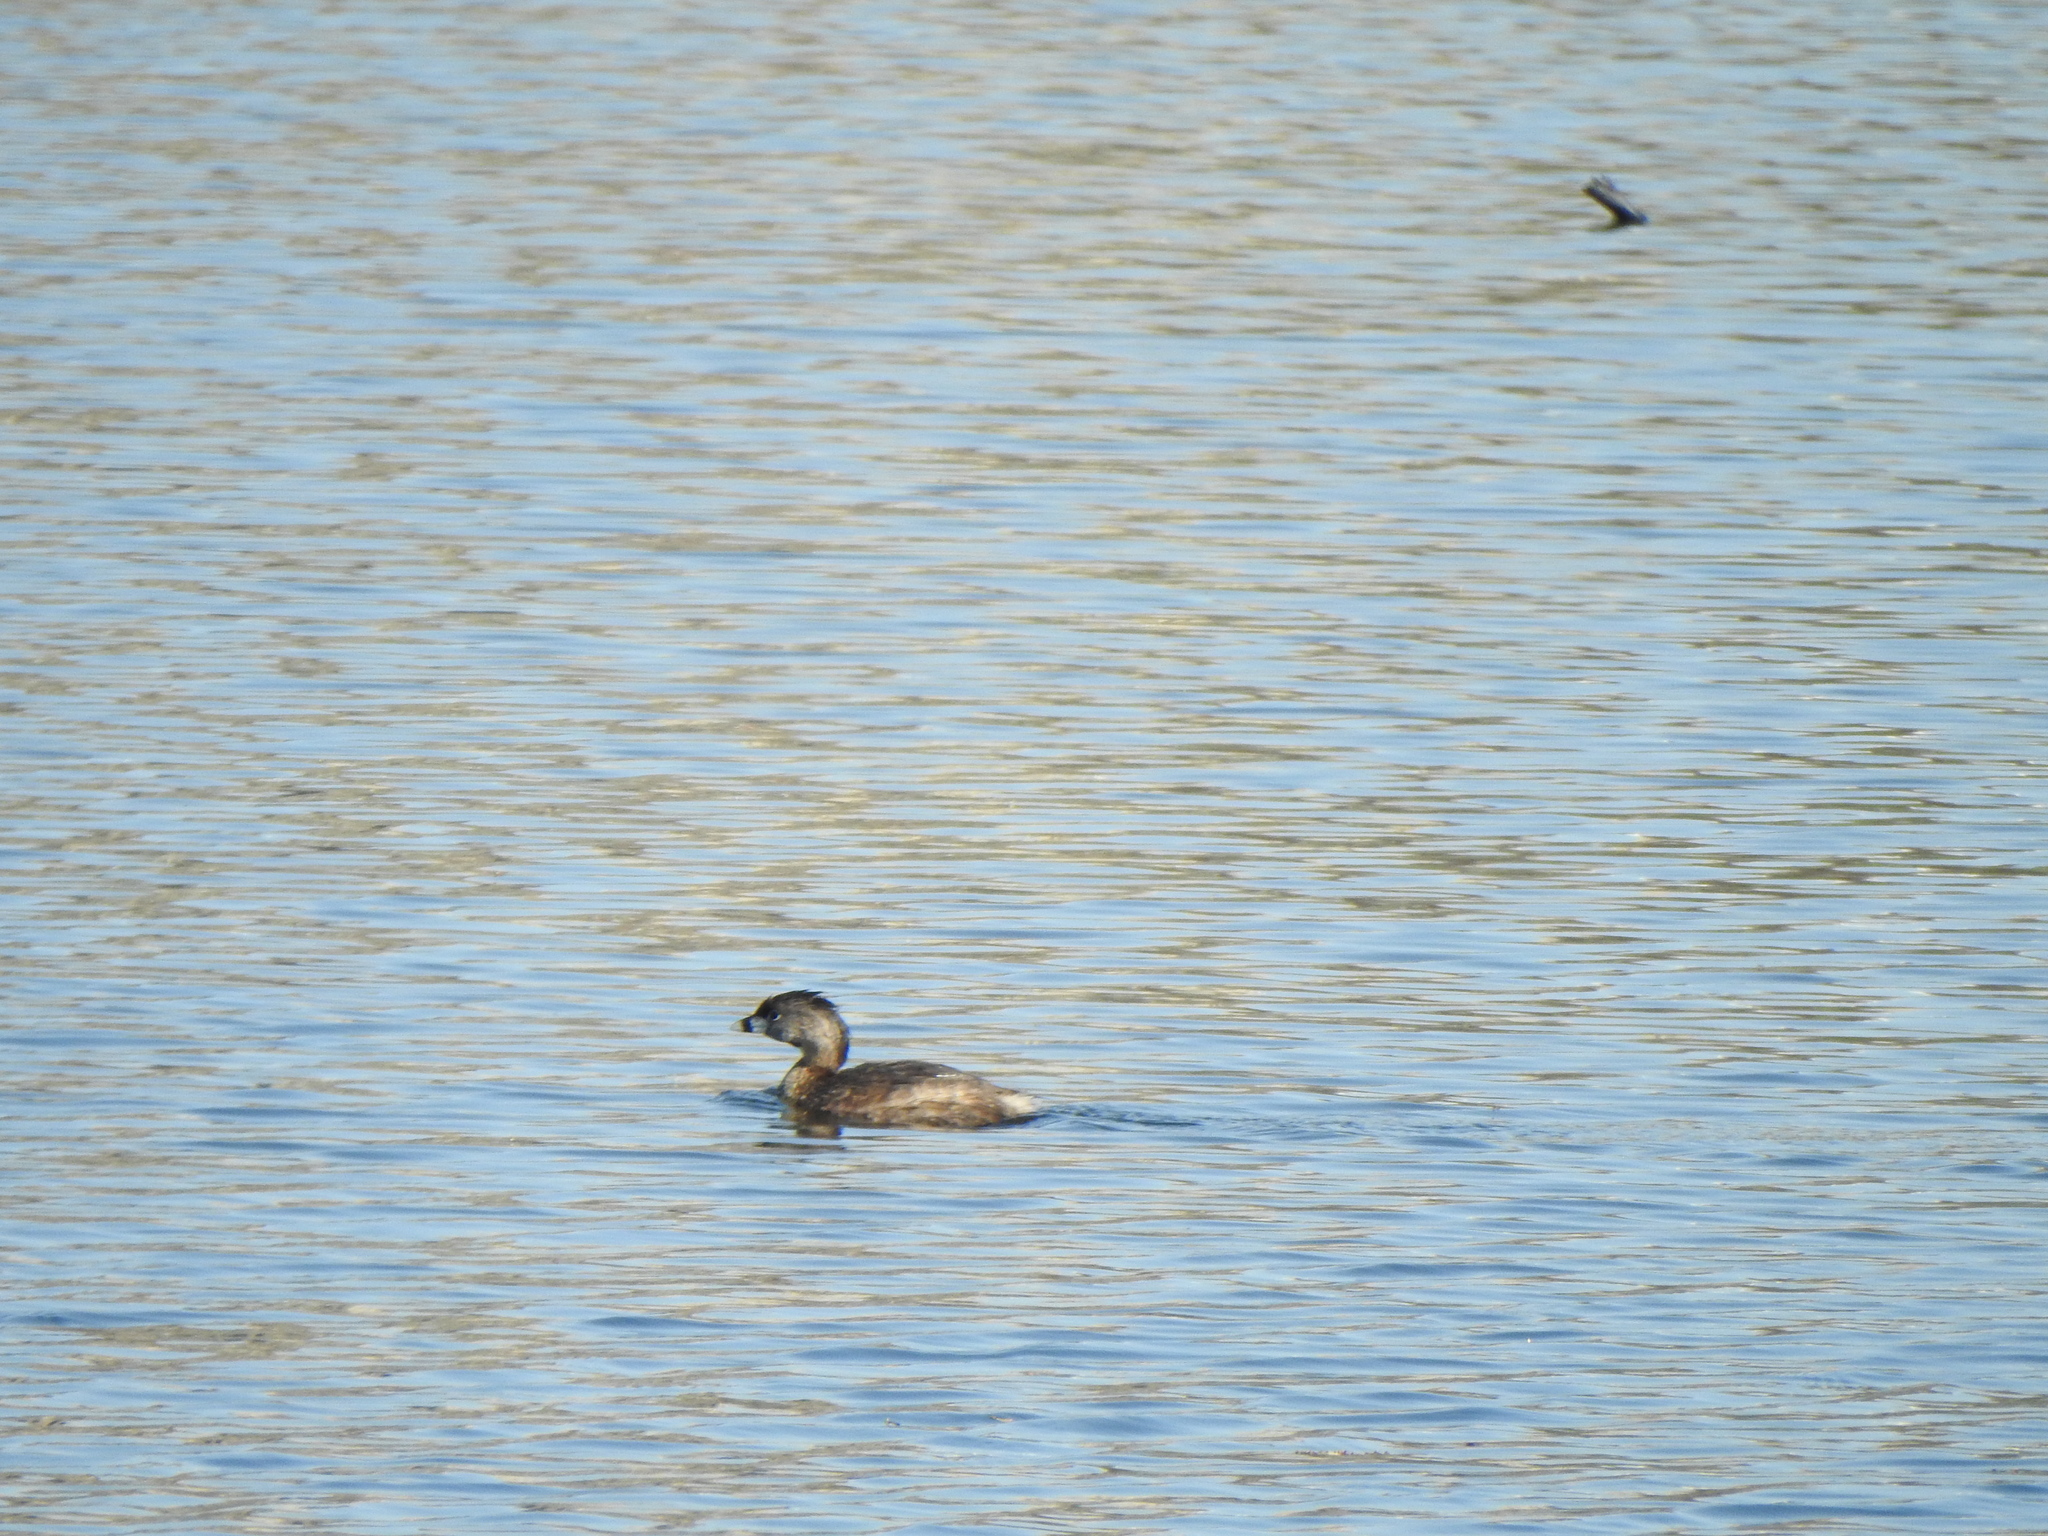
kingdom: Animalia
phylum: Chordata
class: Aves
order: Podicipediformes
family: Podicipedidae
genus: Podilymbus
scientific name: Podilymbus podiceps
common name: Pied-billed grebe
